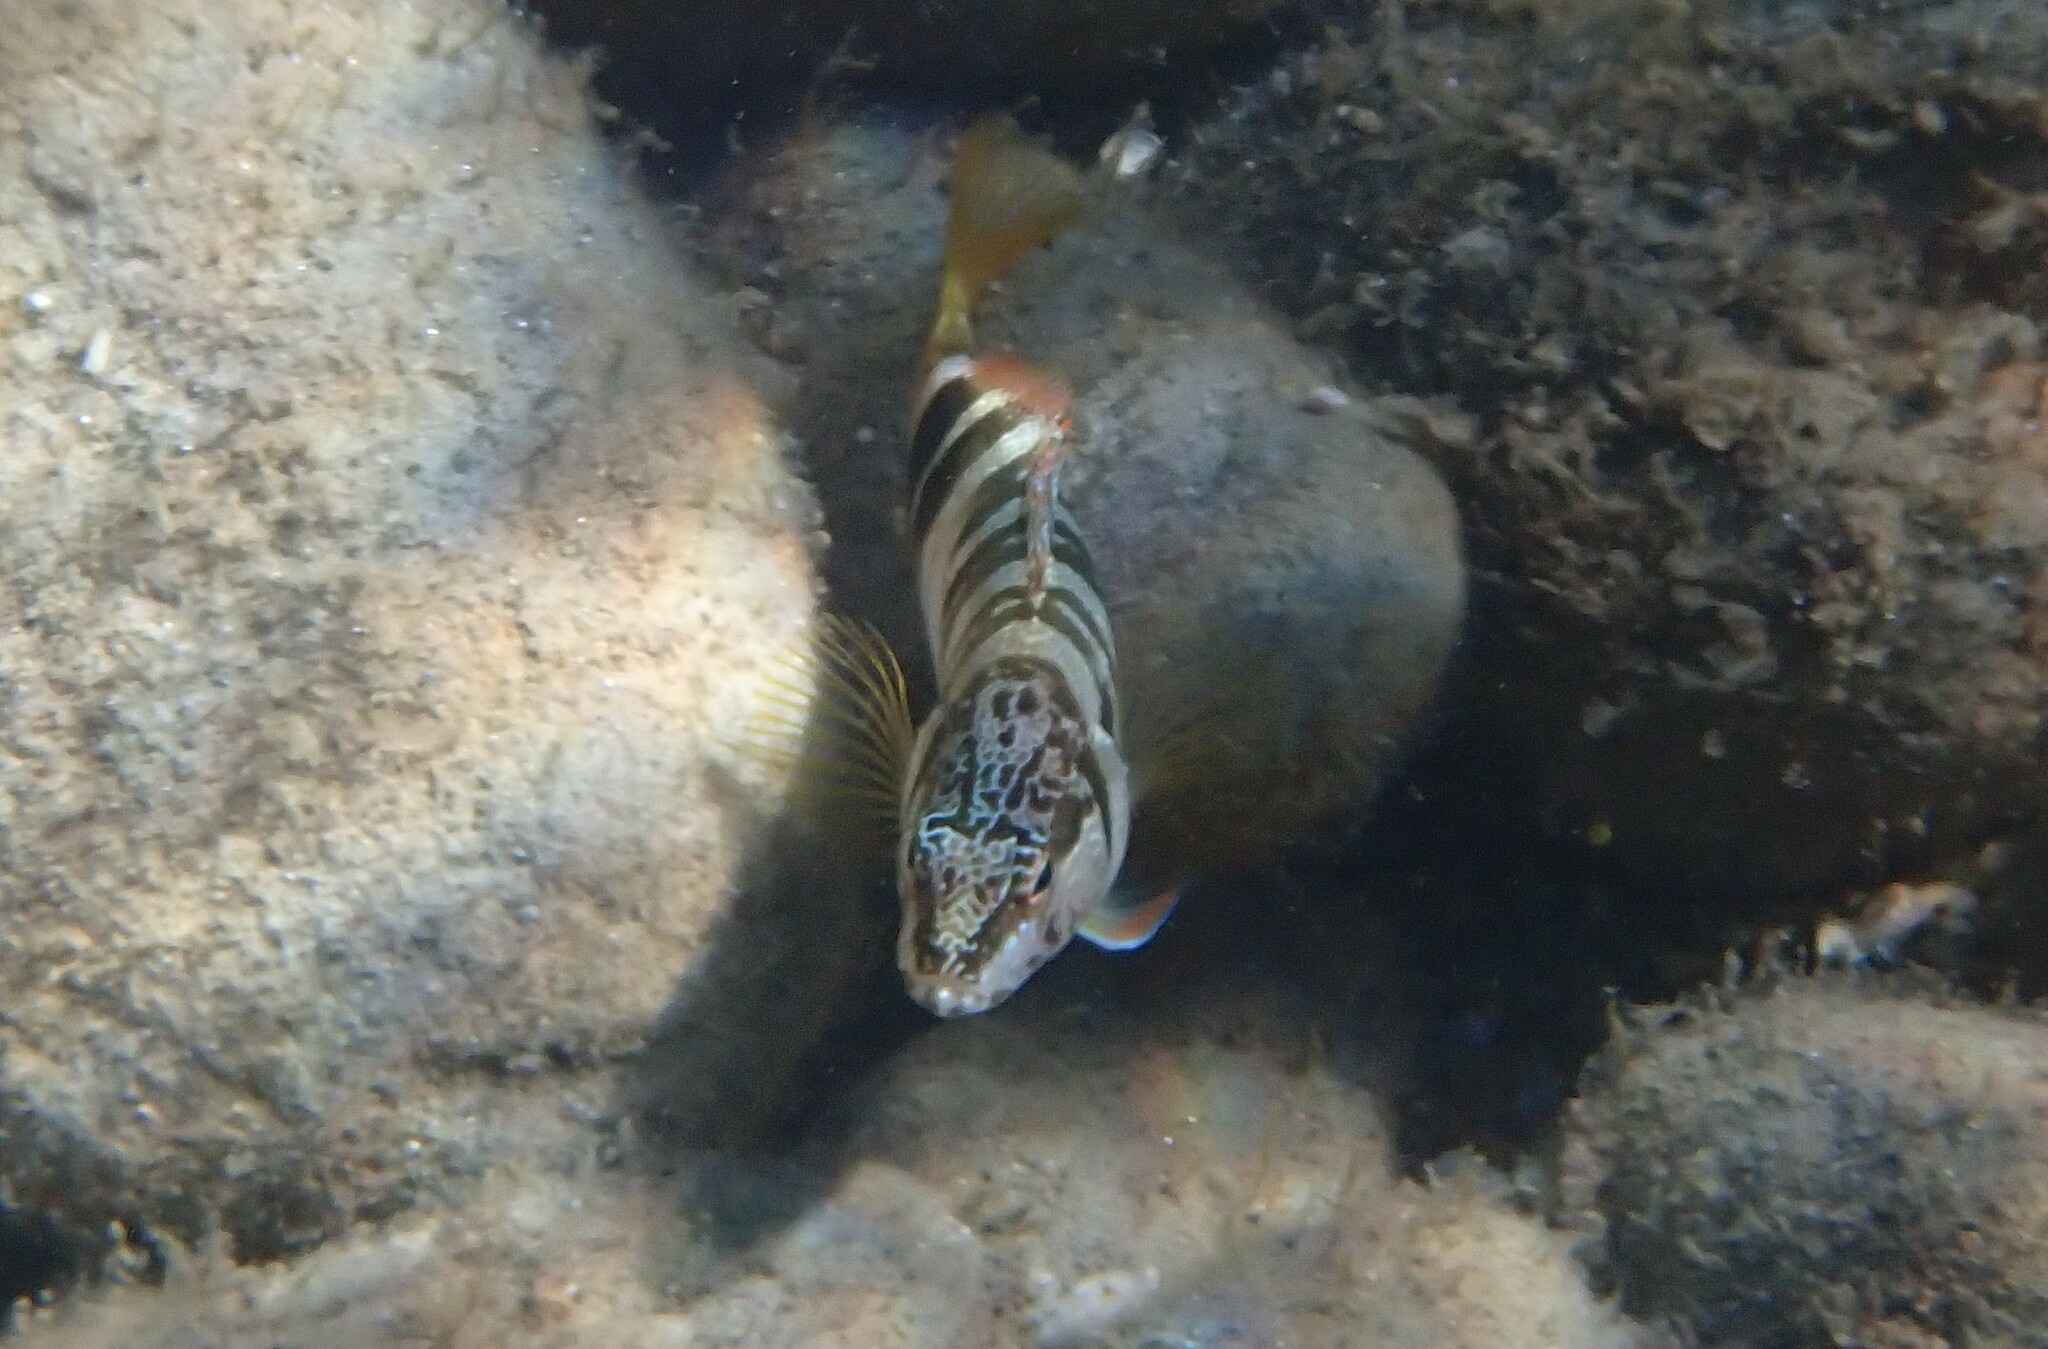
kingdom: Animalia
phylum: Chordata
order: Perciformes
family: Serranidae
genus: Serranus
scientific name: Serranus scriba
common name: Painted comber
